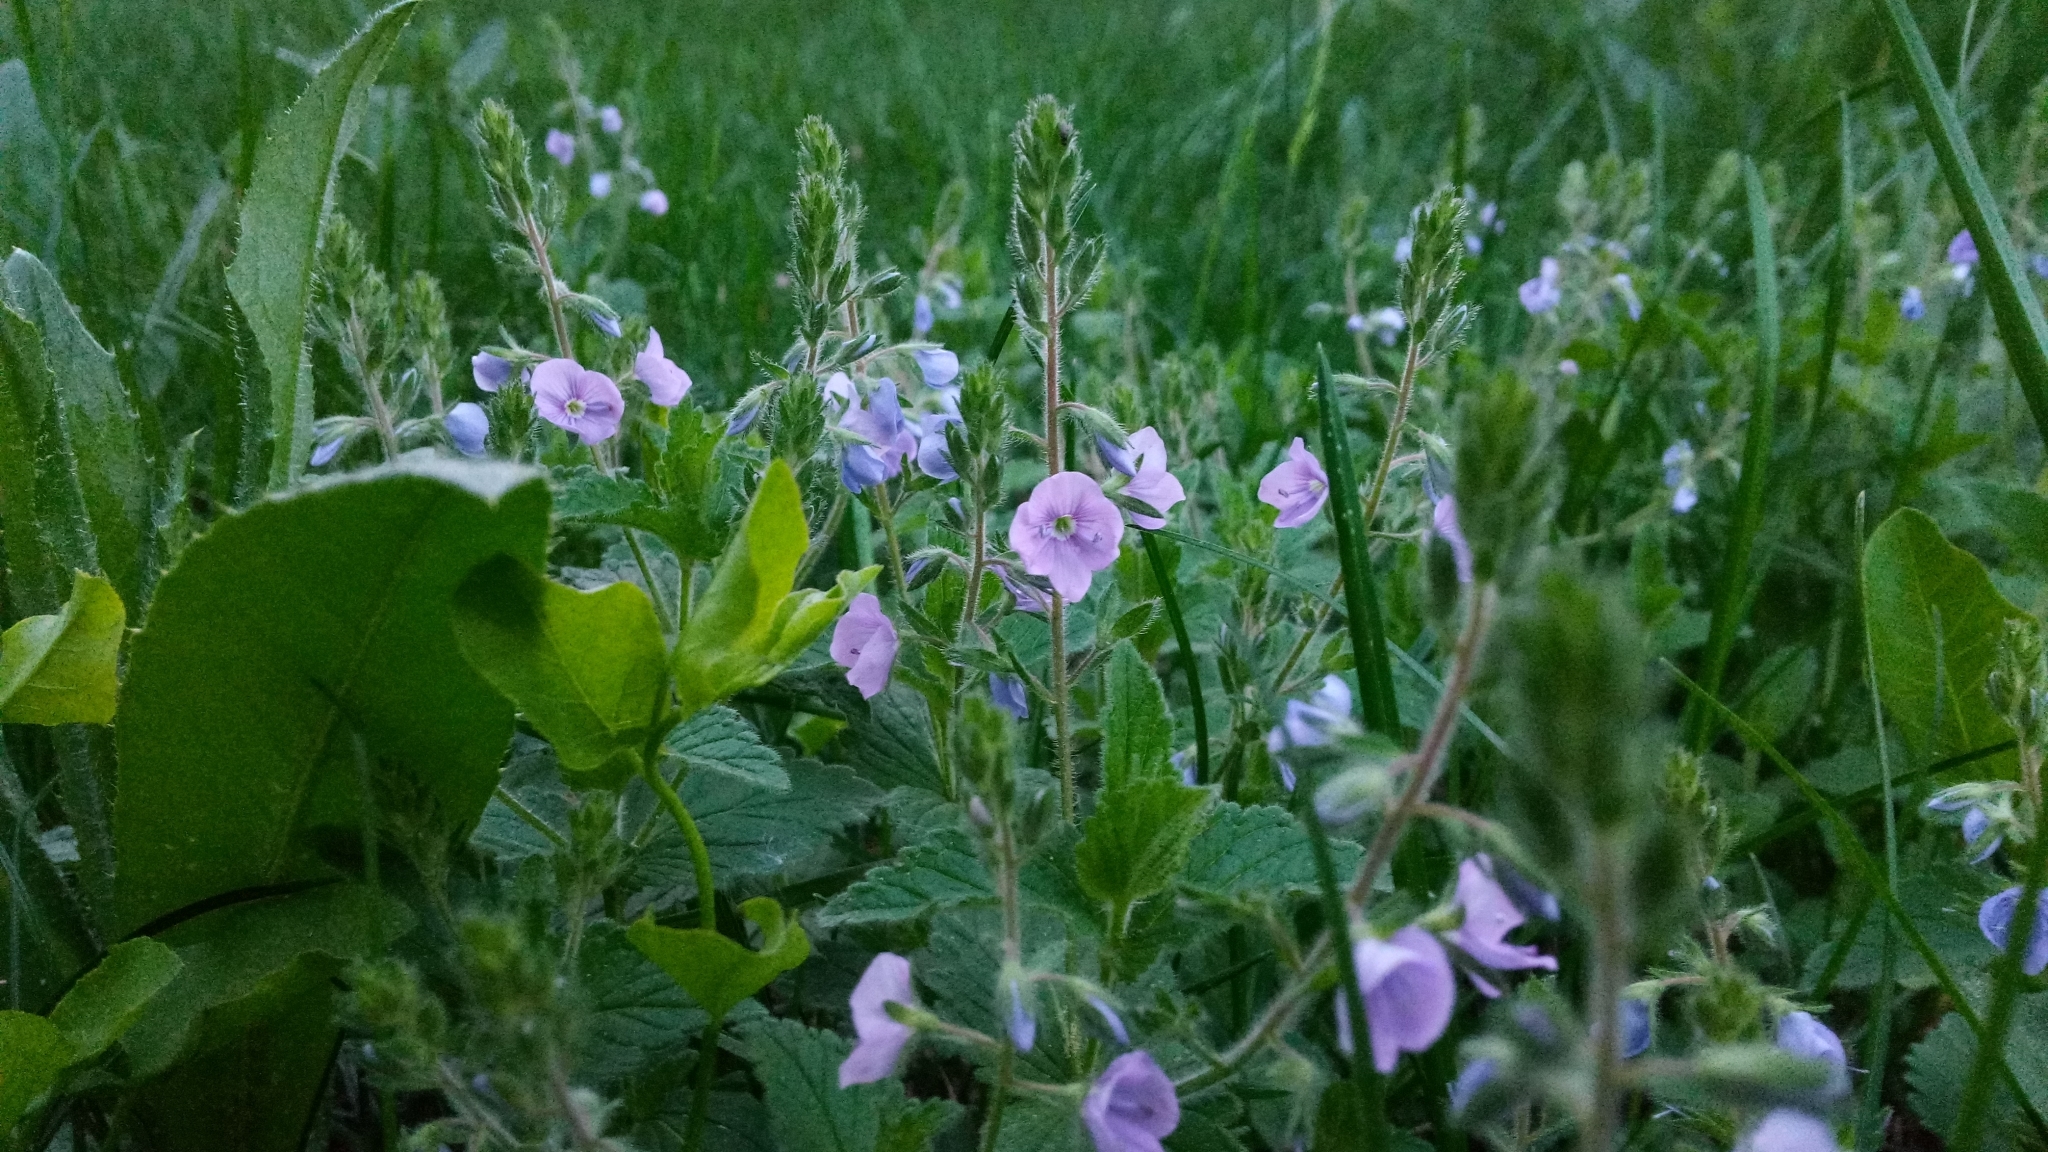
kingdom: Plantae
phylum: Tracheophyta
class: Magnoliopsida
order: Lamiales
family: Plantaginaceae
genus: Veronica
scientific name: Veronica chamaedrys
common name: Germander speedwell
